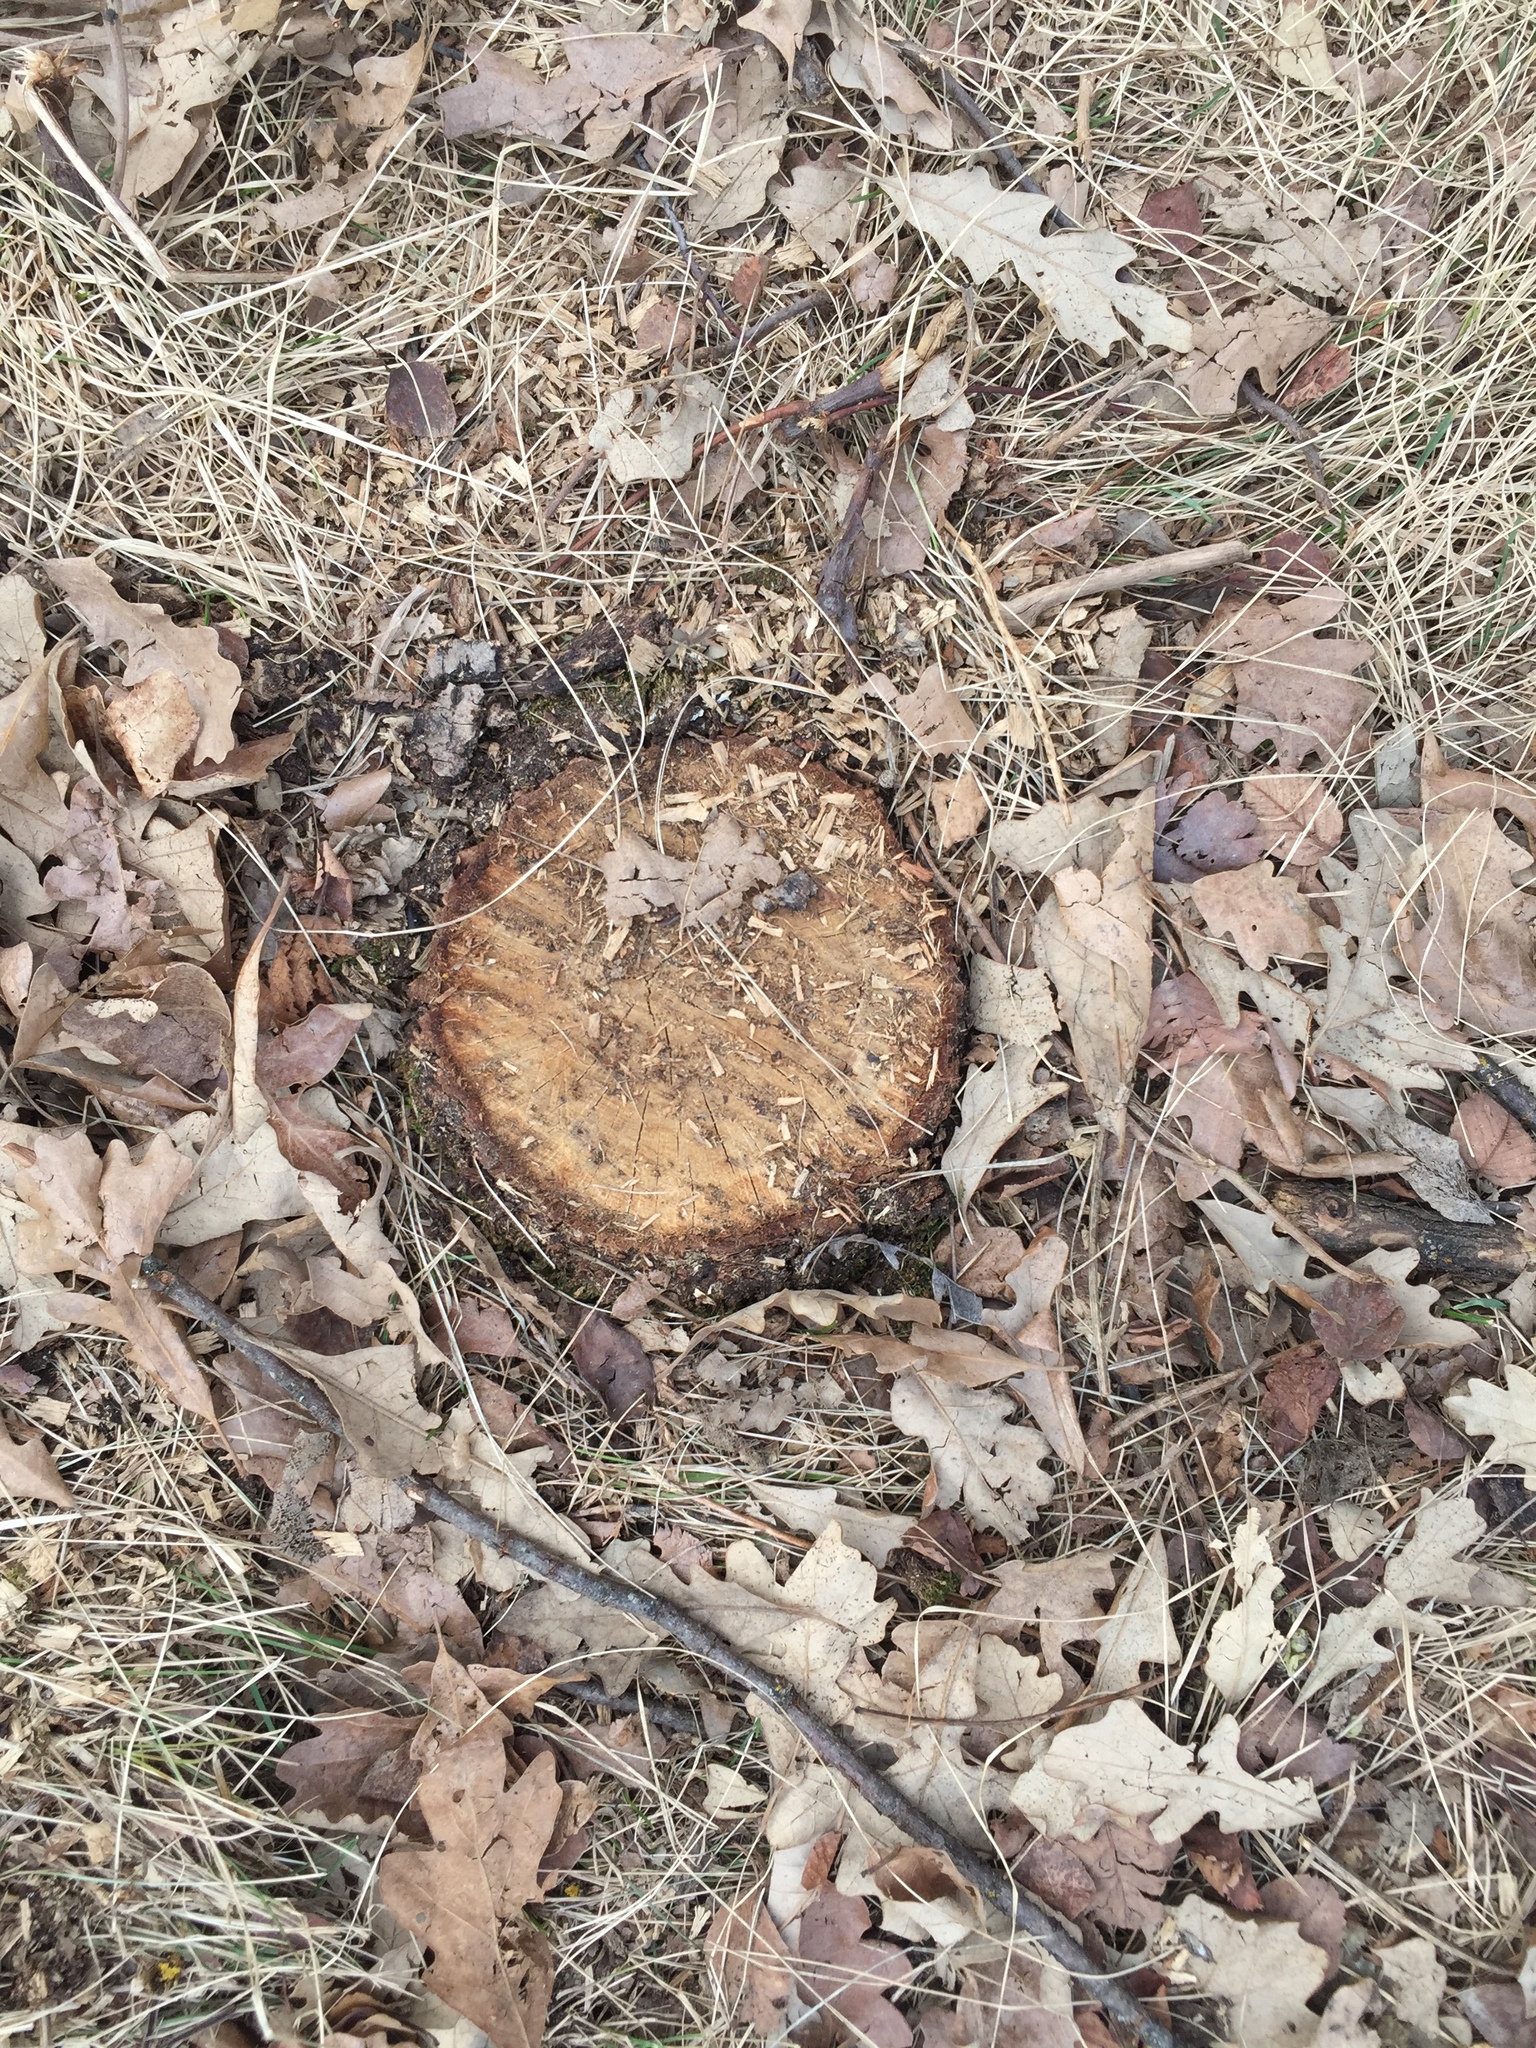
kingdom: Plantae
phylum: Tracheophyta
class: Magnoliopsida
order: Fagales
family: Fagaceae
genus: Quercus
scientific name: Quercus macrocarpa
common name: Bur oak
